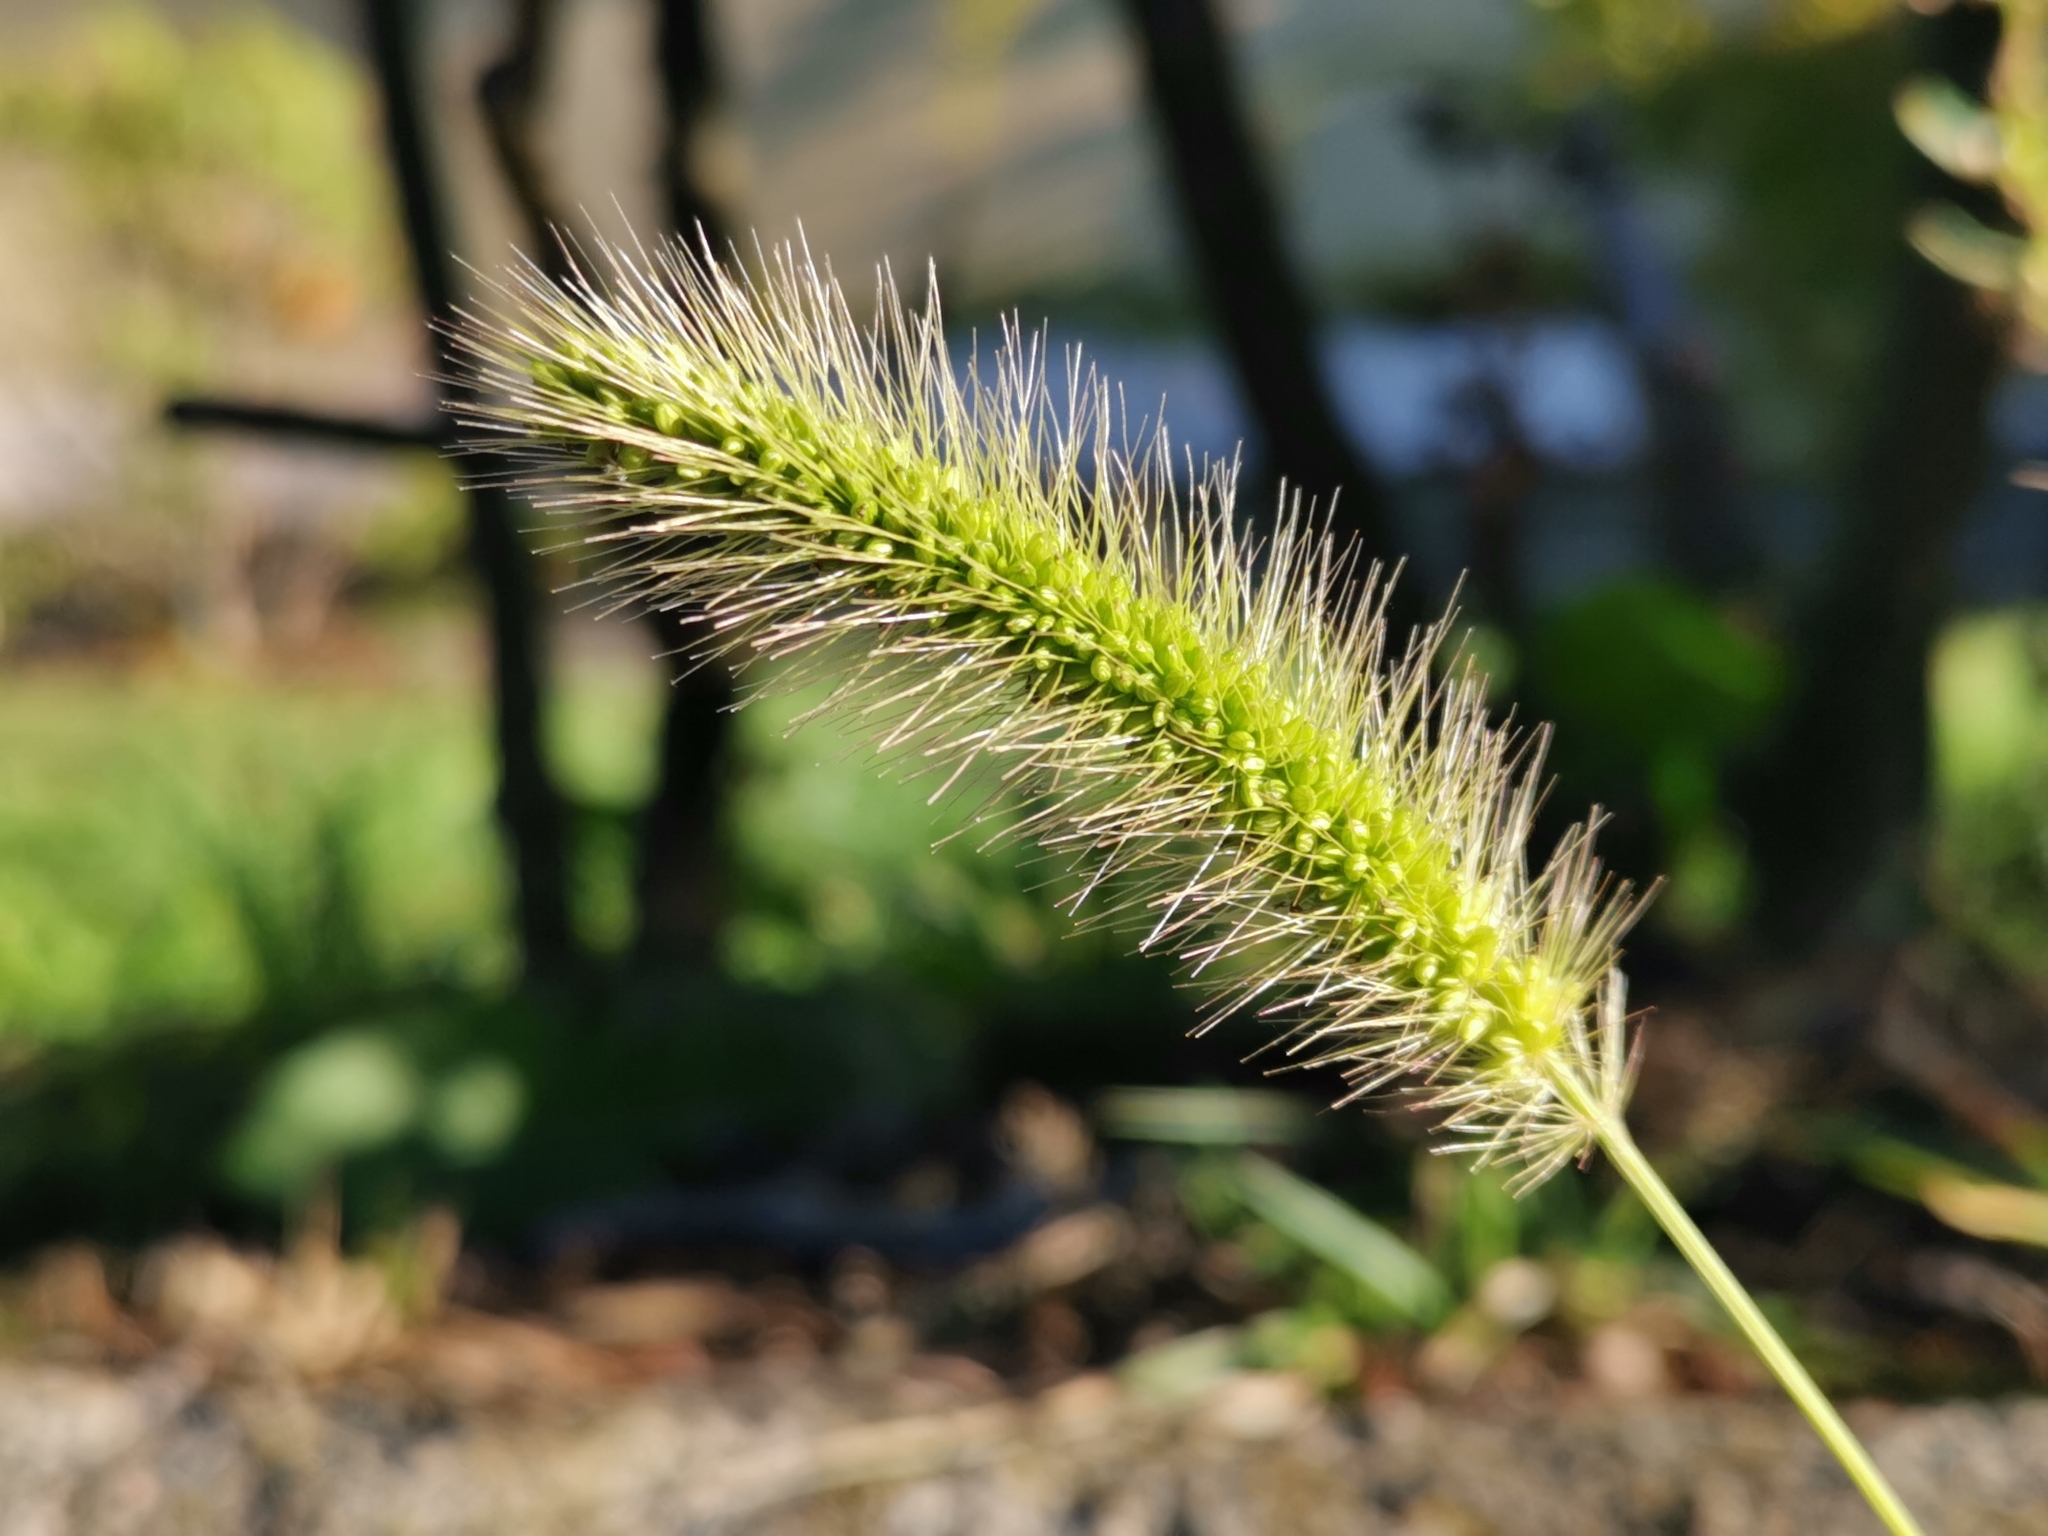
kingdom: Plantae
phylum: Tracheophyta
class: Liliopsida
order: Poales
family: Poaceae
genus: Setaria
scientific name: Setaria viridis
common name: Green bristlegrass
